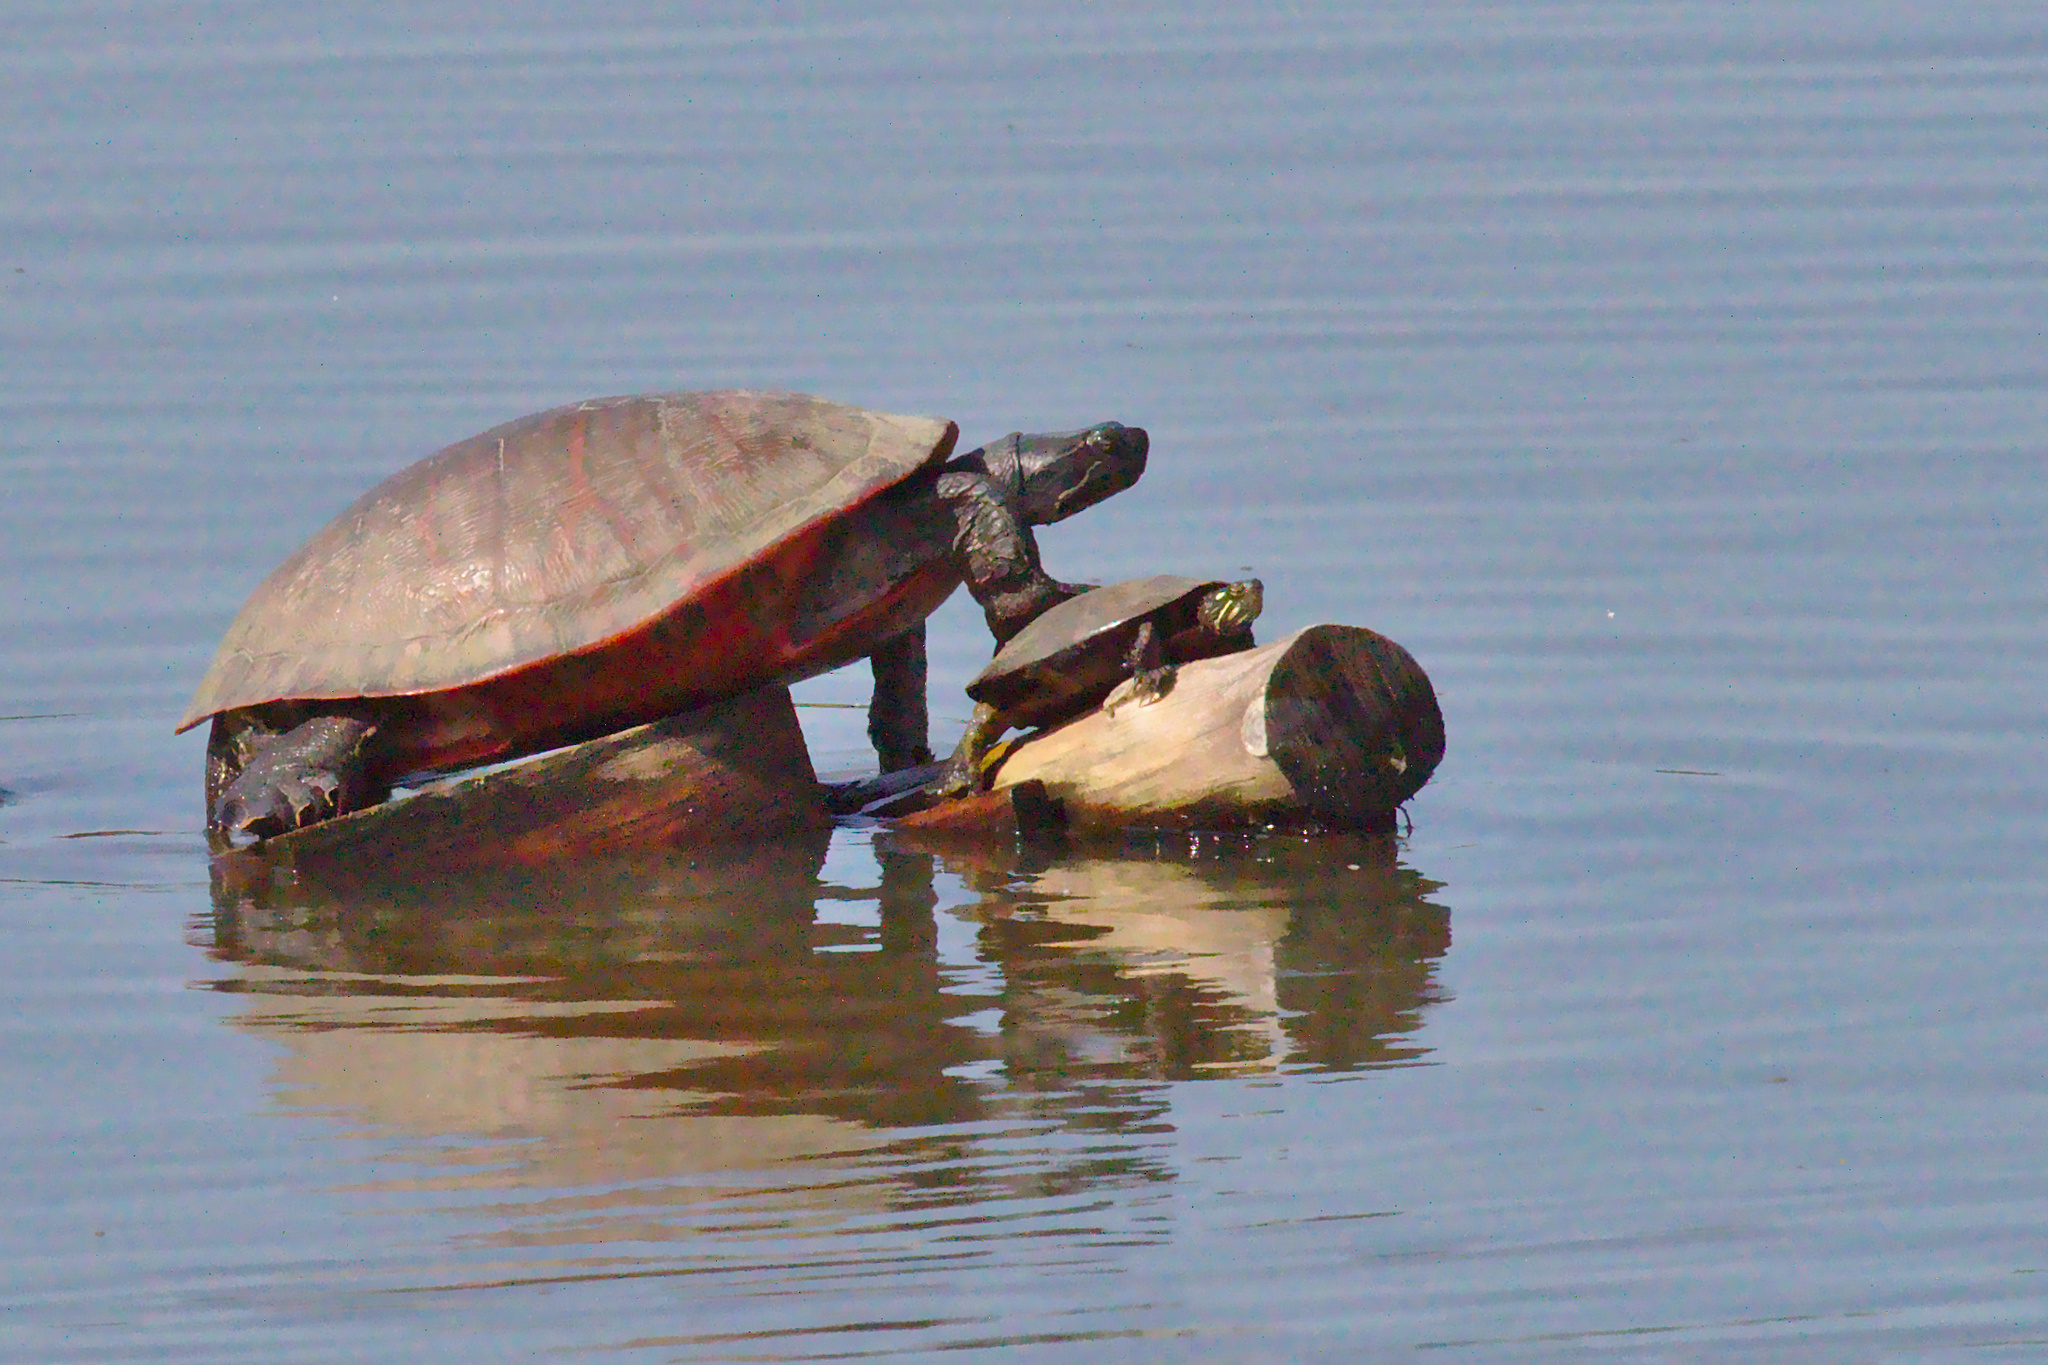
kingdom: Animalia
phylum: Chordata
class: Testudines
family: Emydidae
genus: Pseudemys
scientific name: Pseudemys rubriventris
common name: American red-bellied turtle
